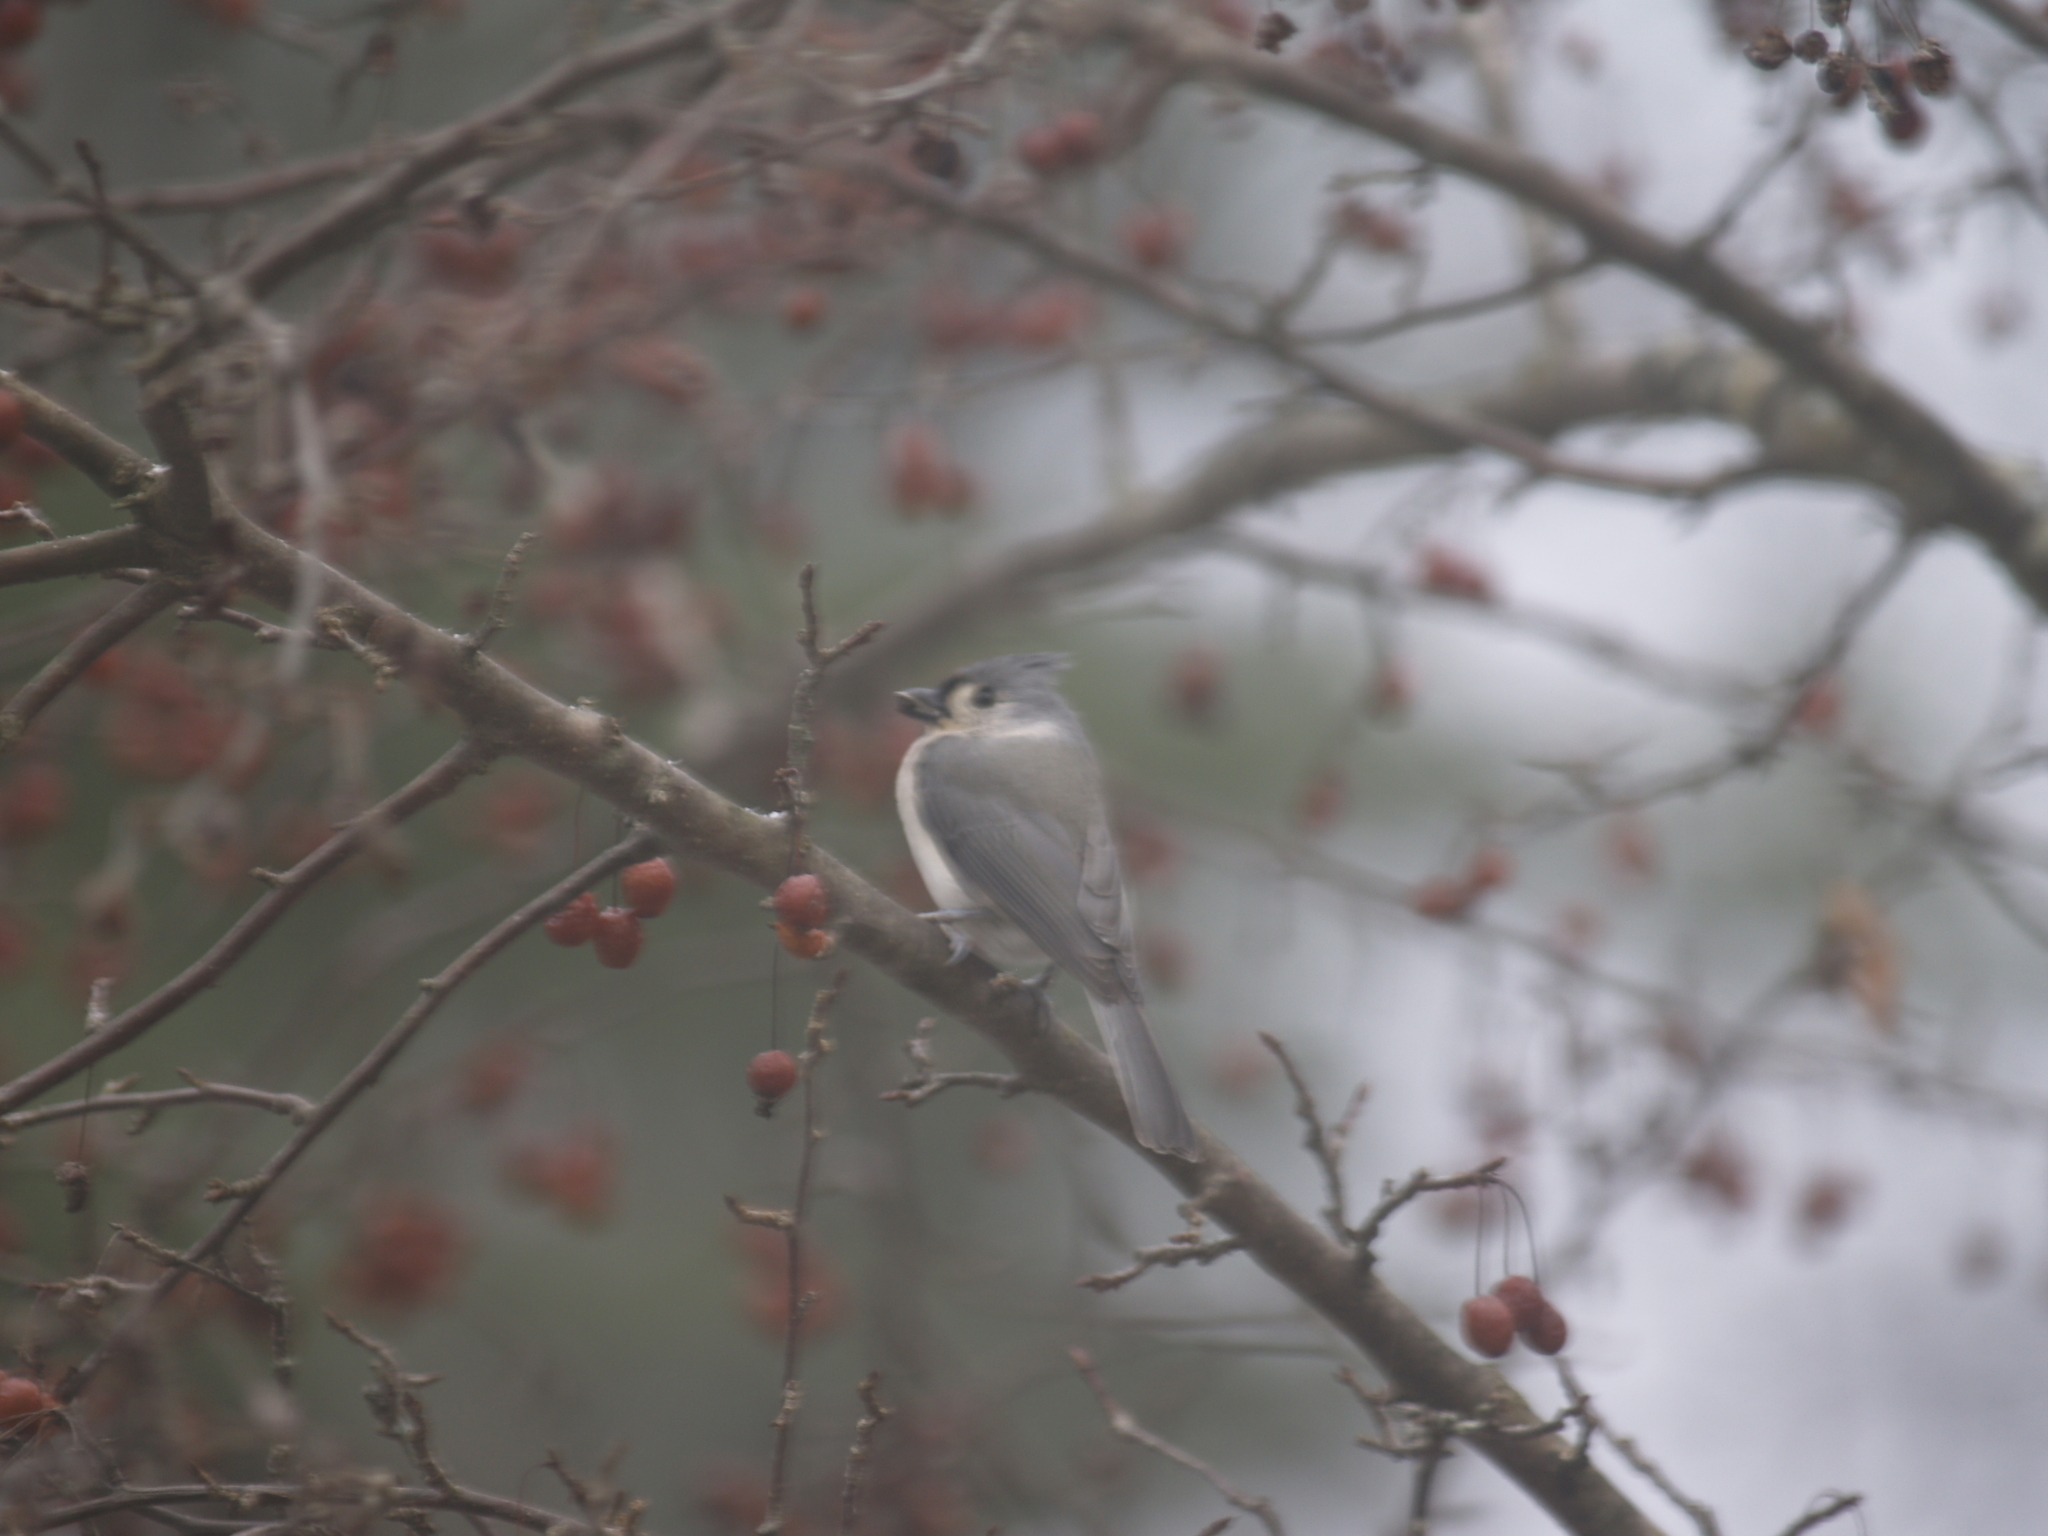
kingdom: Animalia
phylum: Chordata
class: Aves
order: Passeriformes
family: Paridae
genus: Baeolophus
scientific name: Baeolophus bicolor
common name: Tufted titmouse
